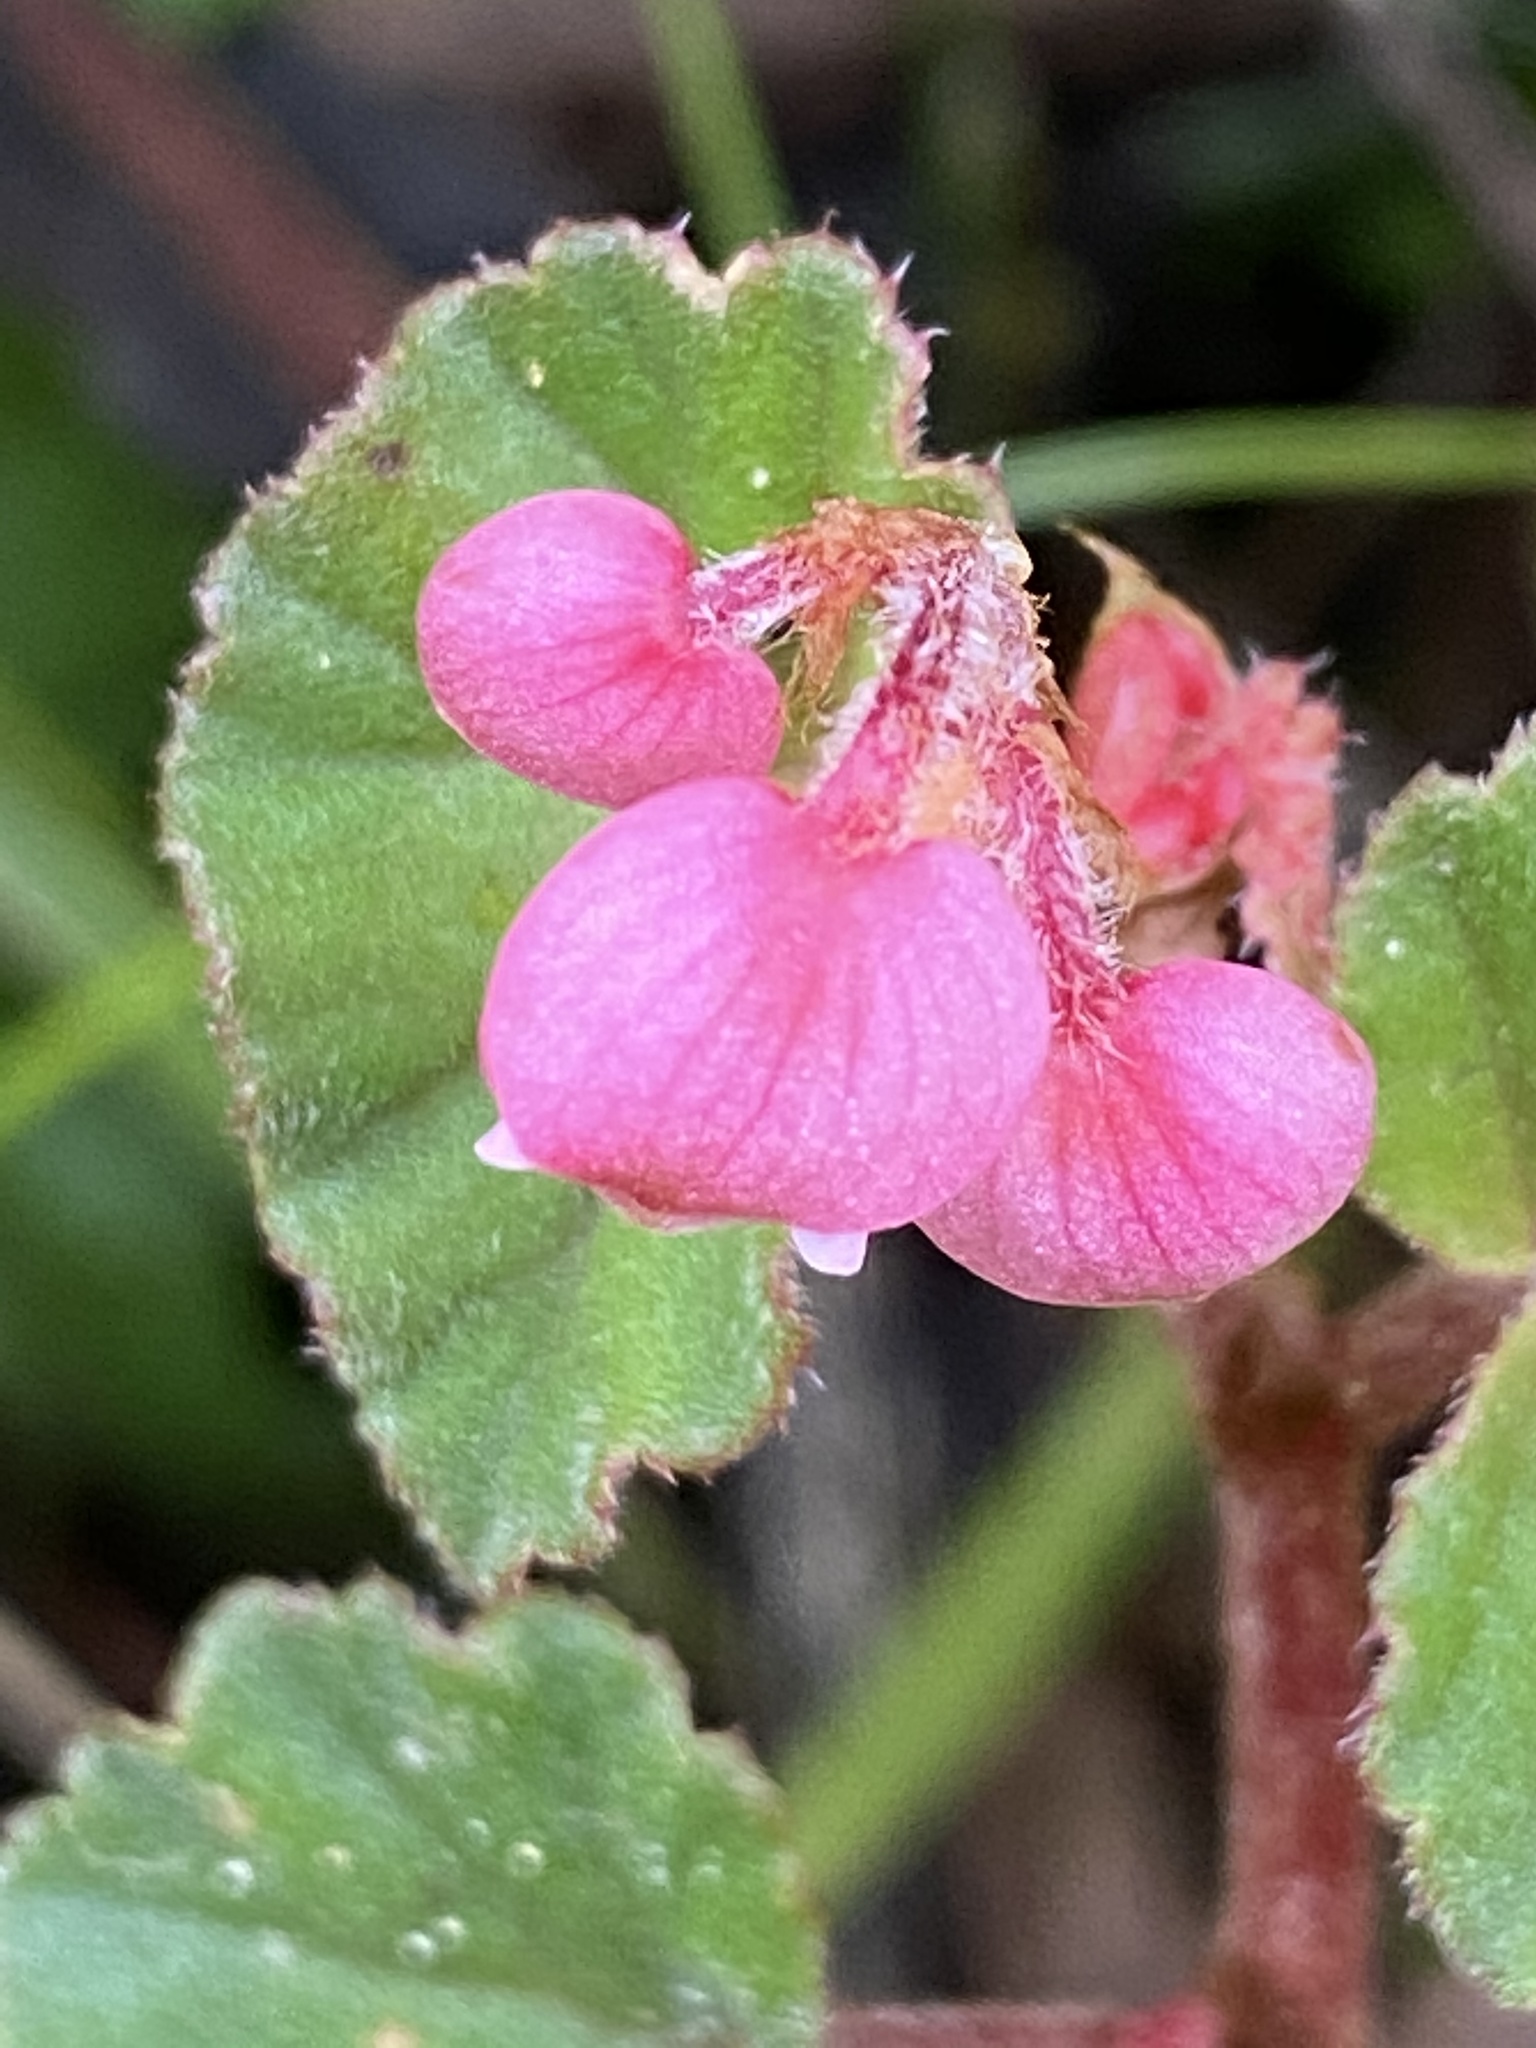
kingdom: Plantae
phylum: Tracheophyta
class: Magnoliopsida
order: Cucurbitales
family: Begoniaceae
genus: Begonia
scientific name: Begonia fischeri
